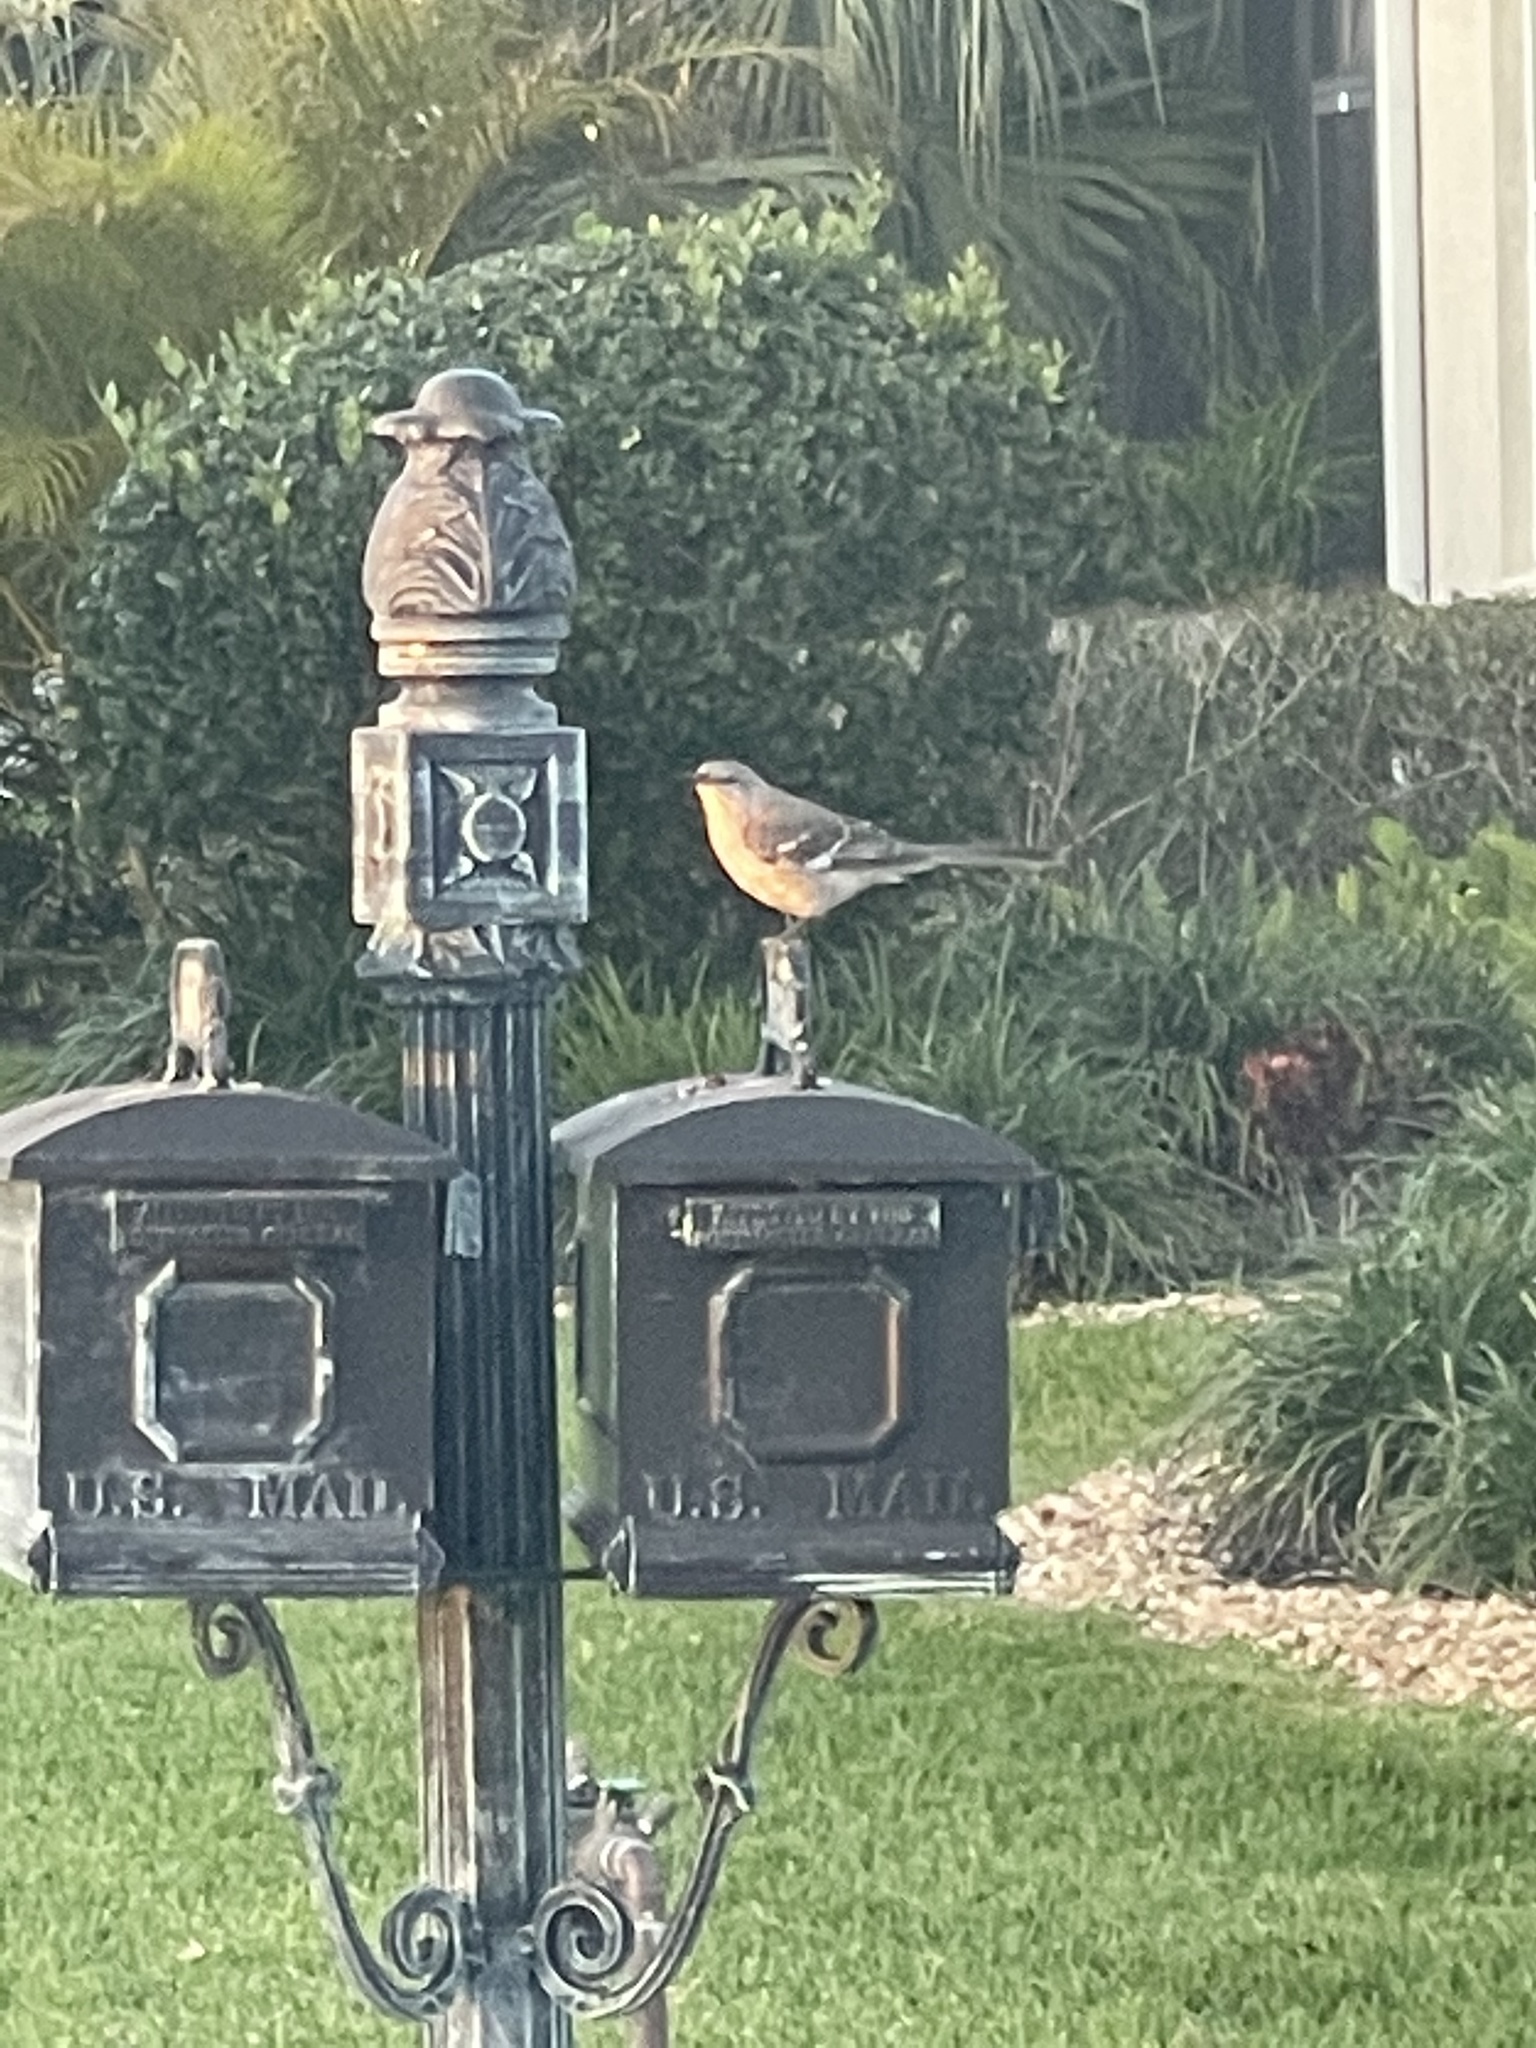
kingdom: Animalia
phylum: Chordata
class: Aves
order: Passeriformes
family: Mimidae
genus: Mimus
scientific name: Mimus polyglottos
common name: Northern mockingbird
